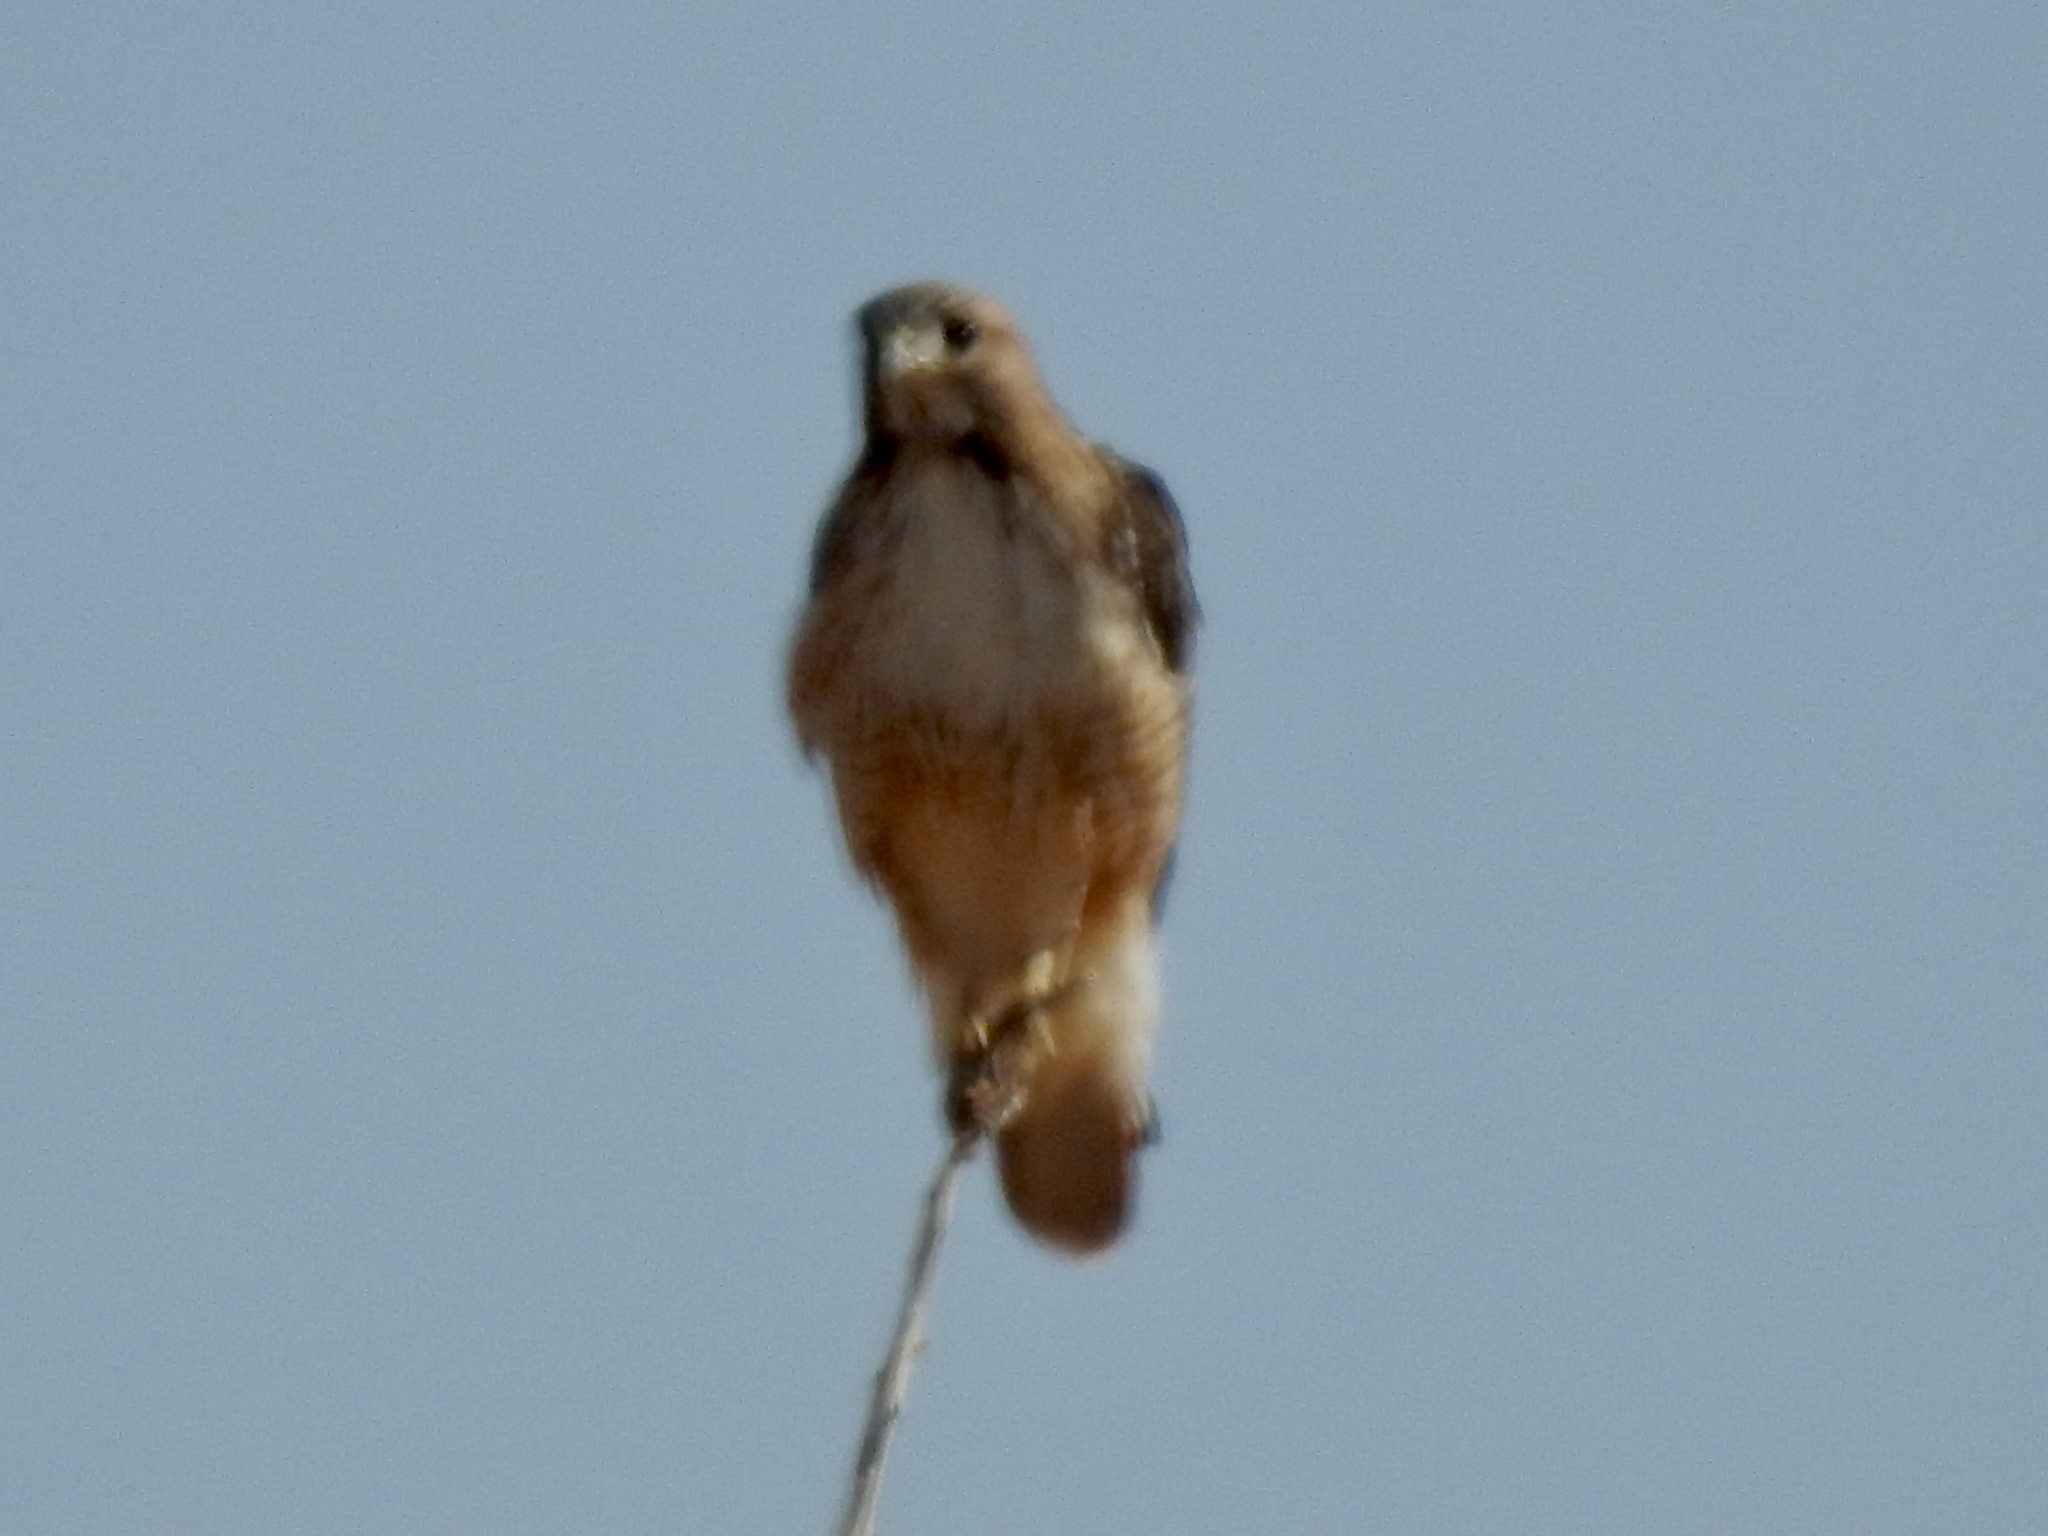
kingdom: Animalia
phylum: Chordata
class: Aves
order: Accipitriformes
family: Accipitridae
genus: Buteo
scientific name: Buteo jamaicensis
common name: Red-tailed hawk
